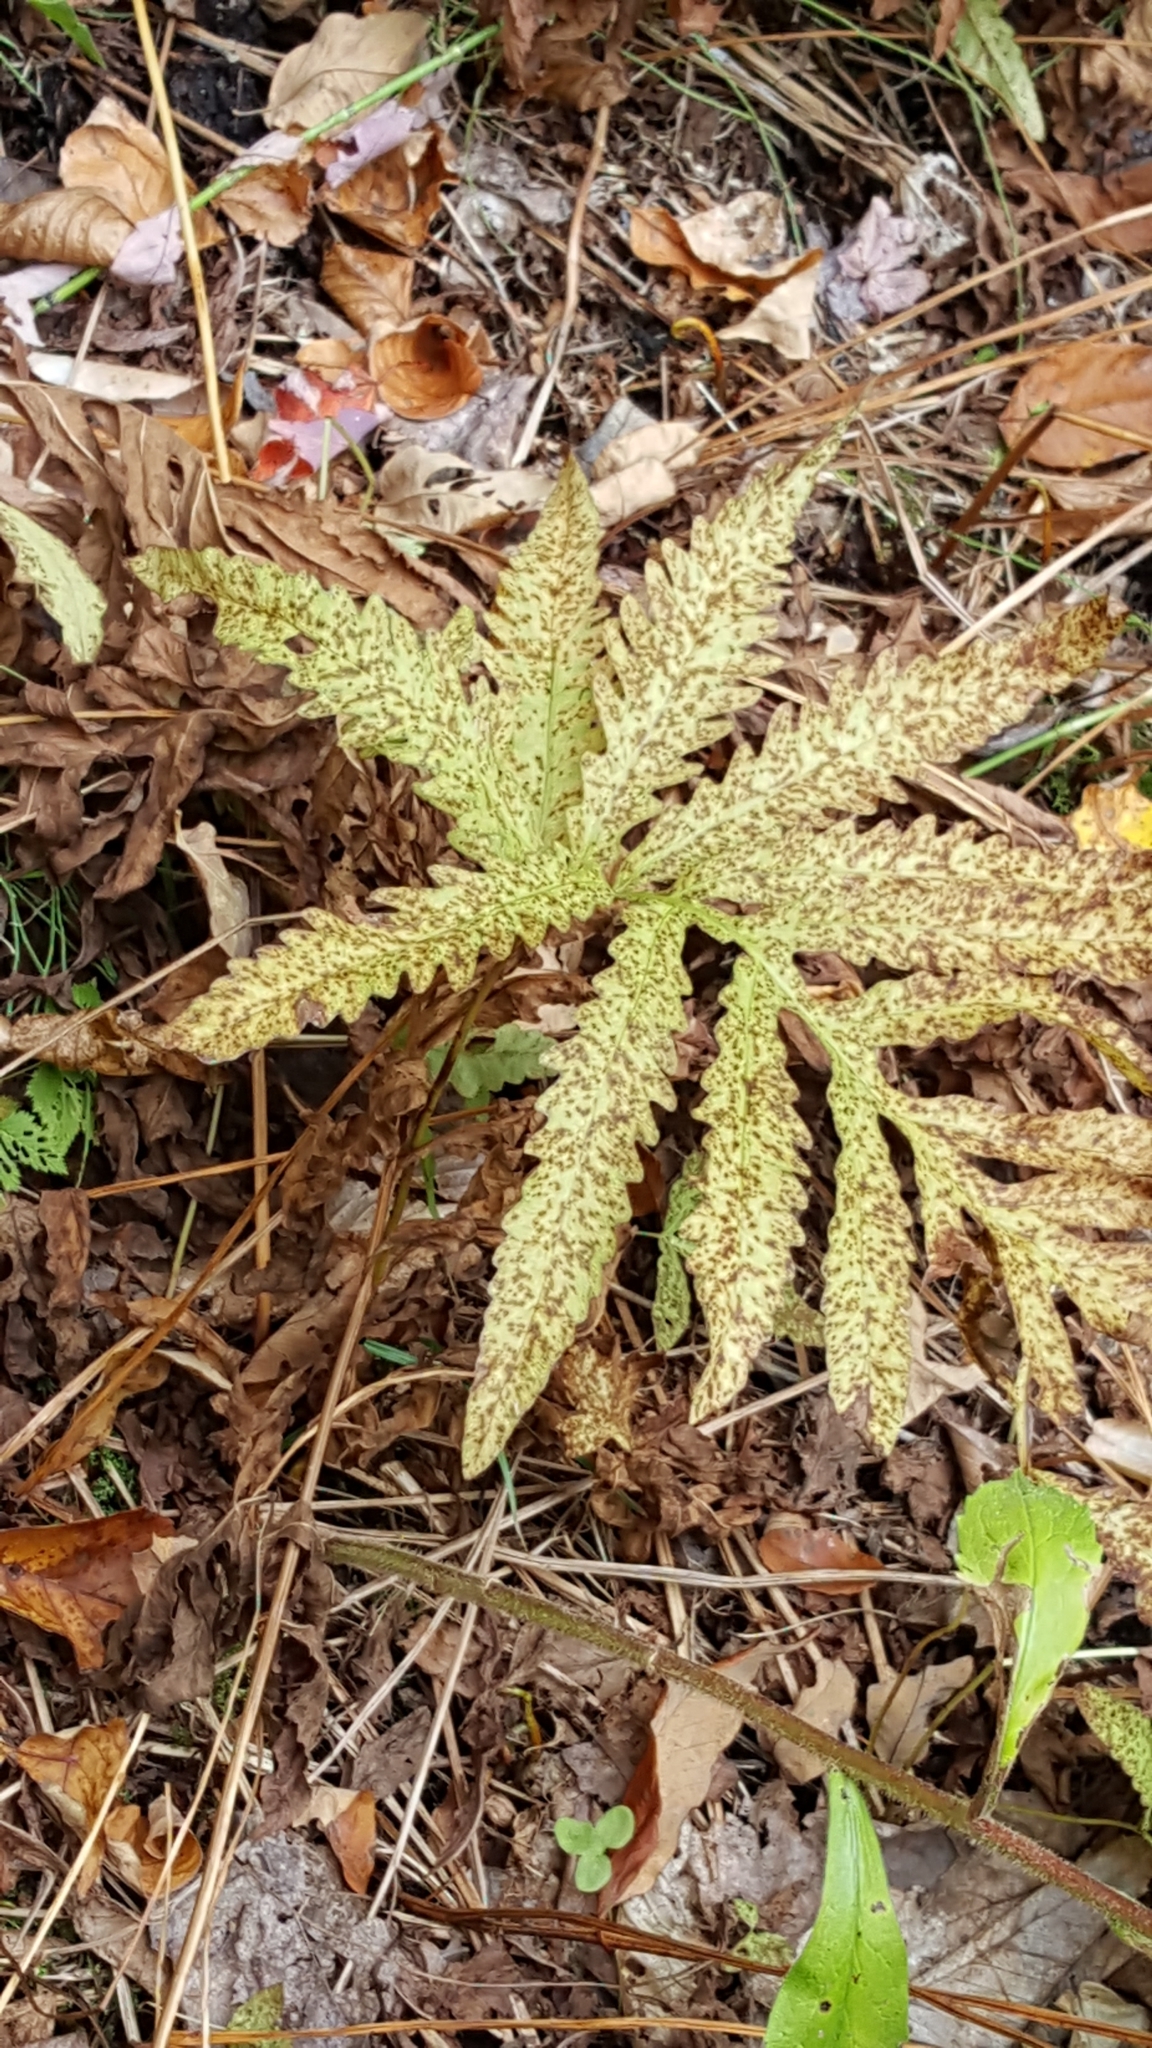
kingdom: Plantae
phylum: Tracheophyta
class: Polypodiopsida
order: Polypodiales
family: Onocleaceae
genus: Onoclea
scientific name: Onoclea sensibilis
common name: Sensitive fern
